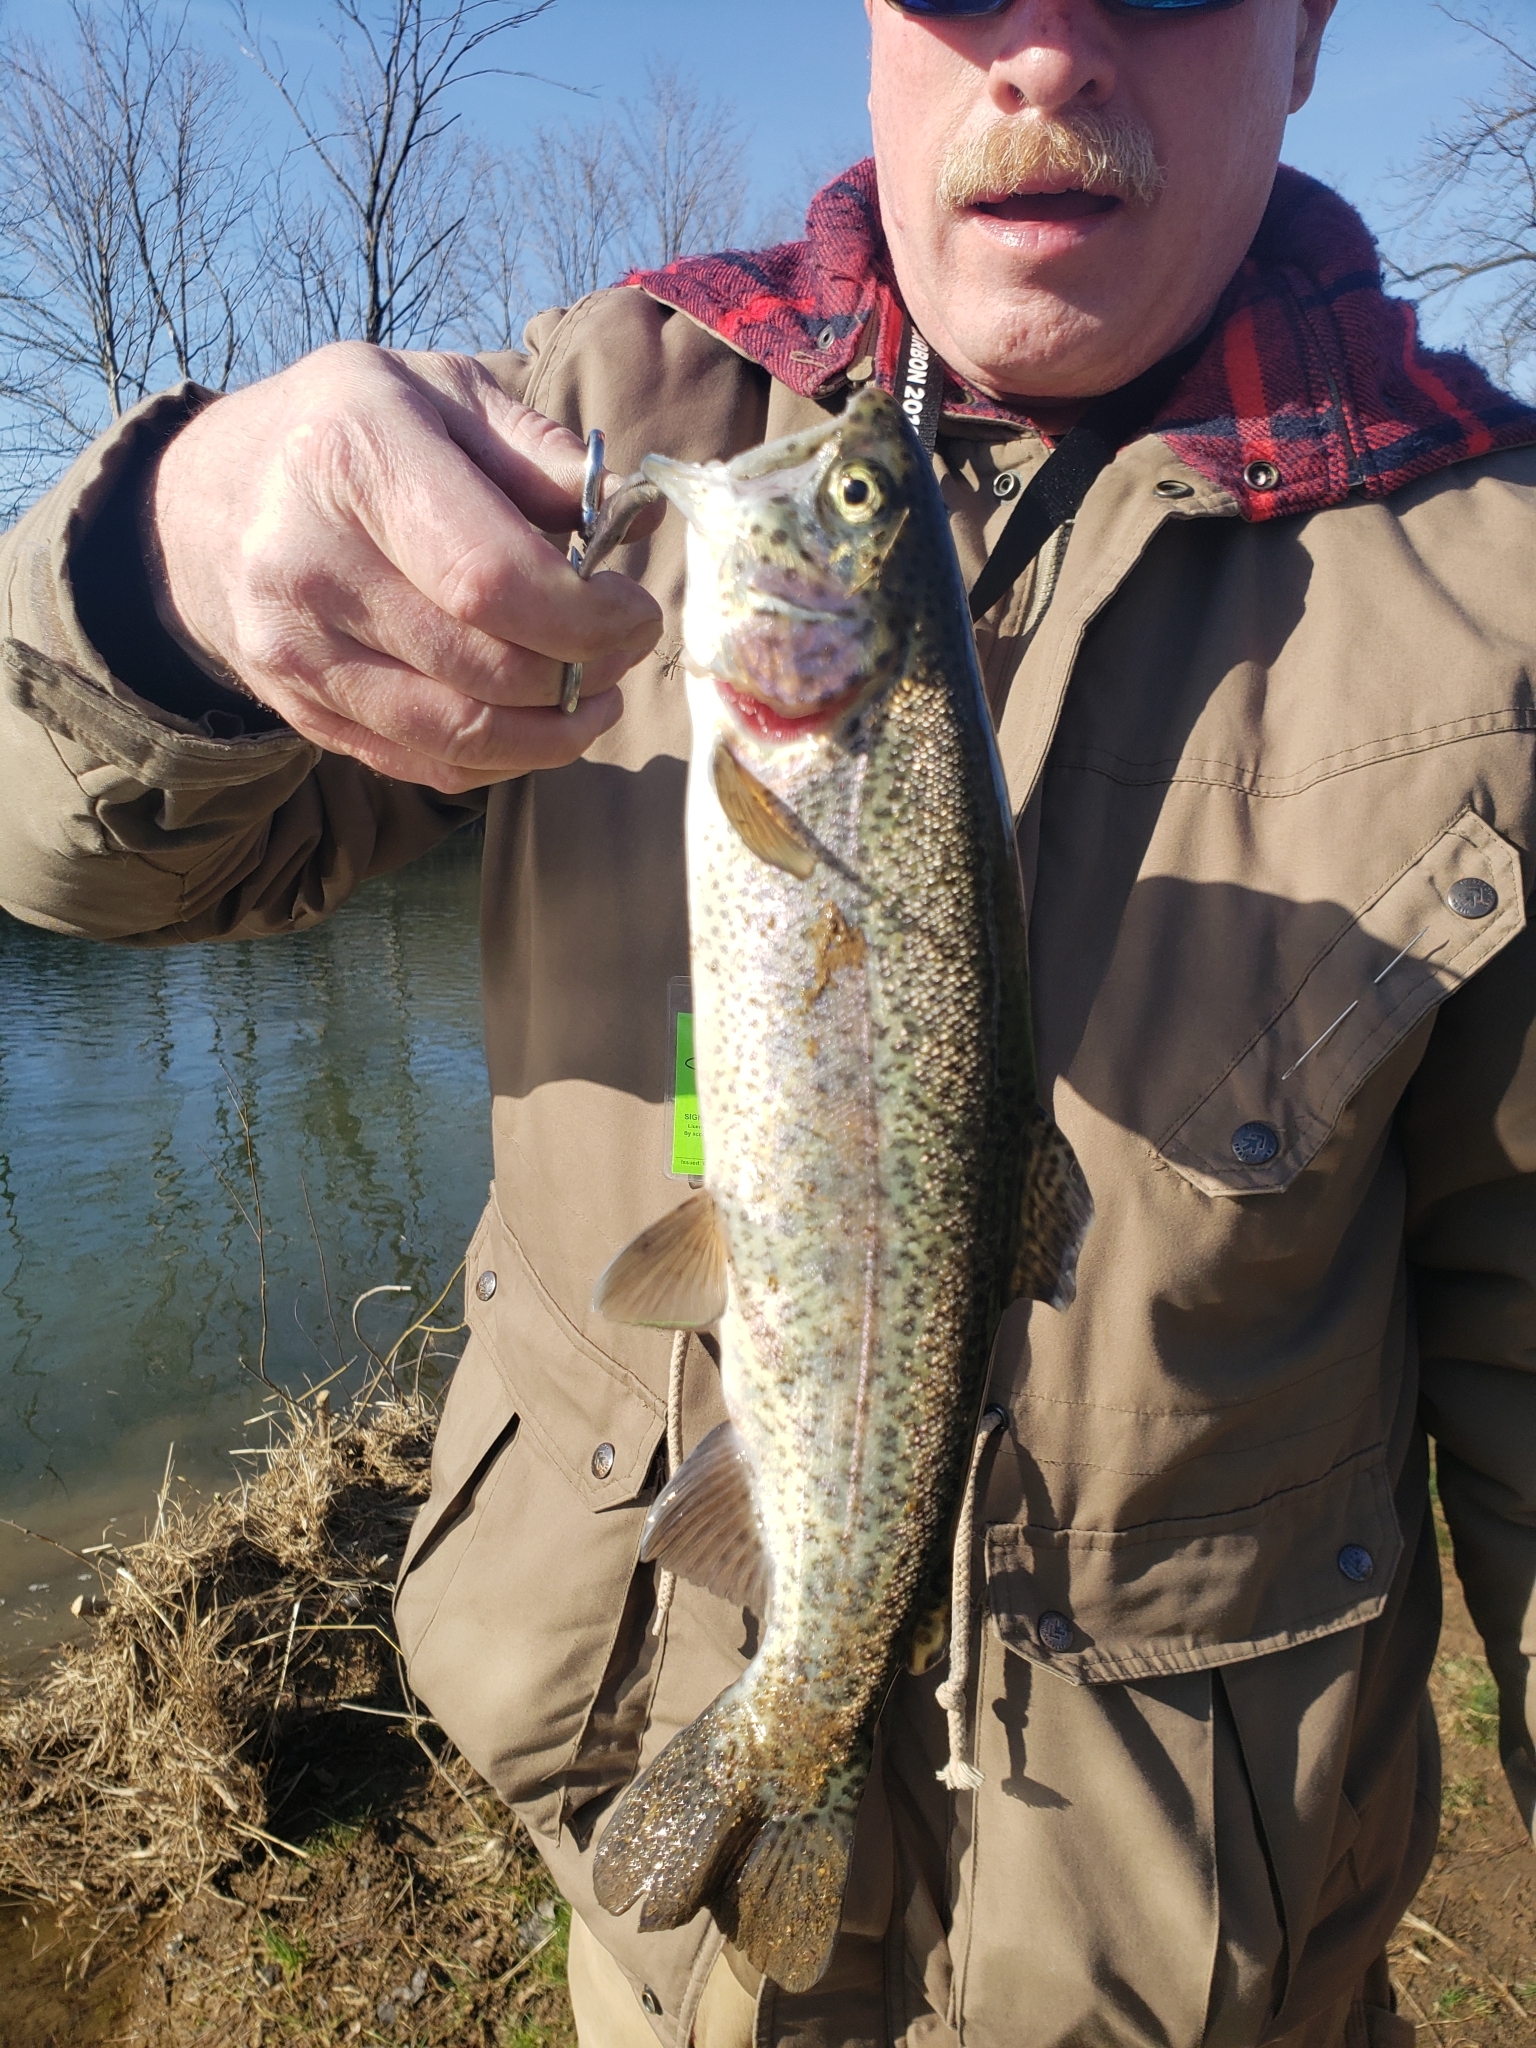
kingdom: Animalia
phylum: Chordata
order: Salmoniformes
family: Salmonidae
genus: Oncorhynchus
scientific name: Oncorhynchus mykiss
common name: Rainbow trout
